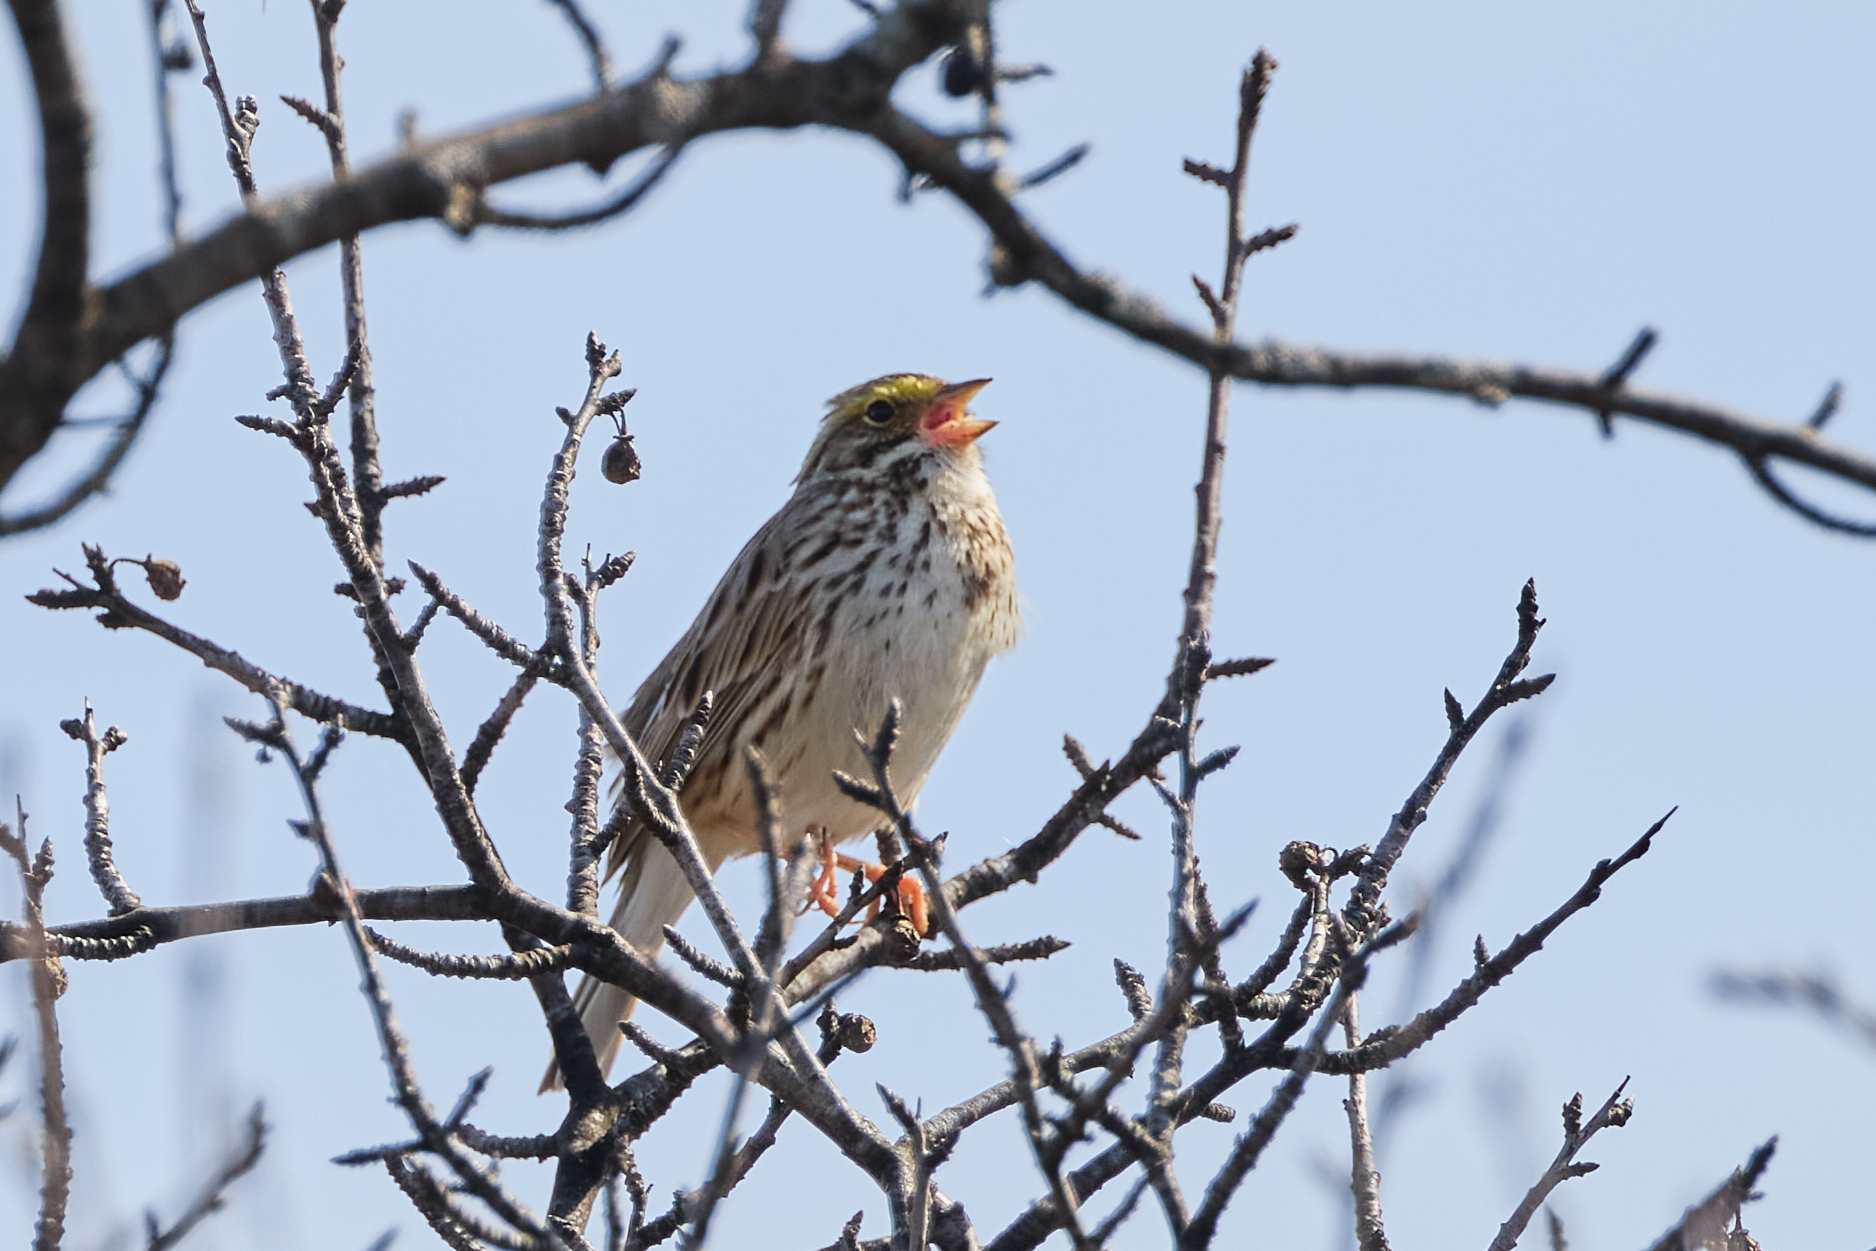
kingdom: Animalia
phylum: Chordata
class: Aves
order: Passeriformes
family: Passerellidae
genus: Passerculus
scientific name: Passerculus sandwichensis
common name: Savannah sparrow
